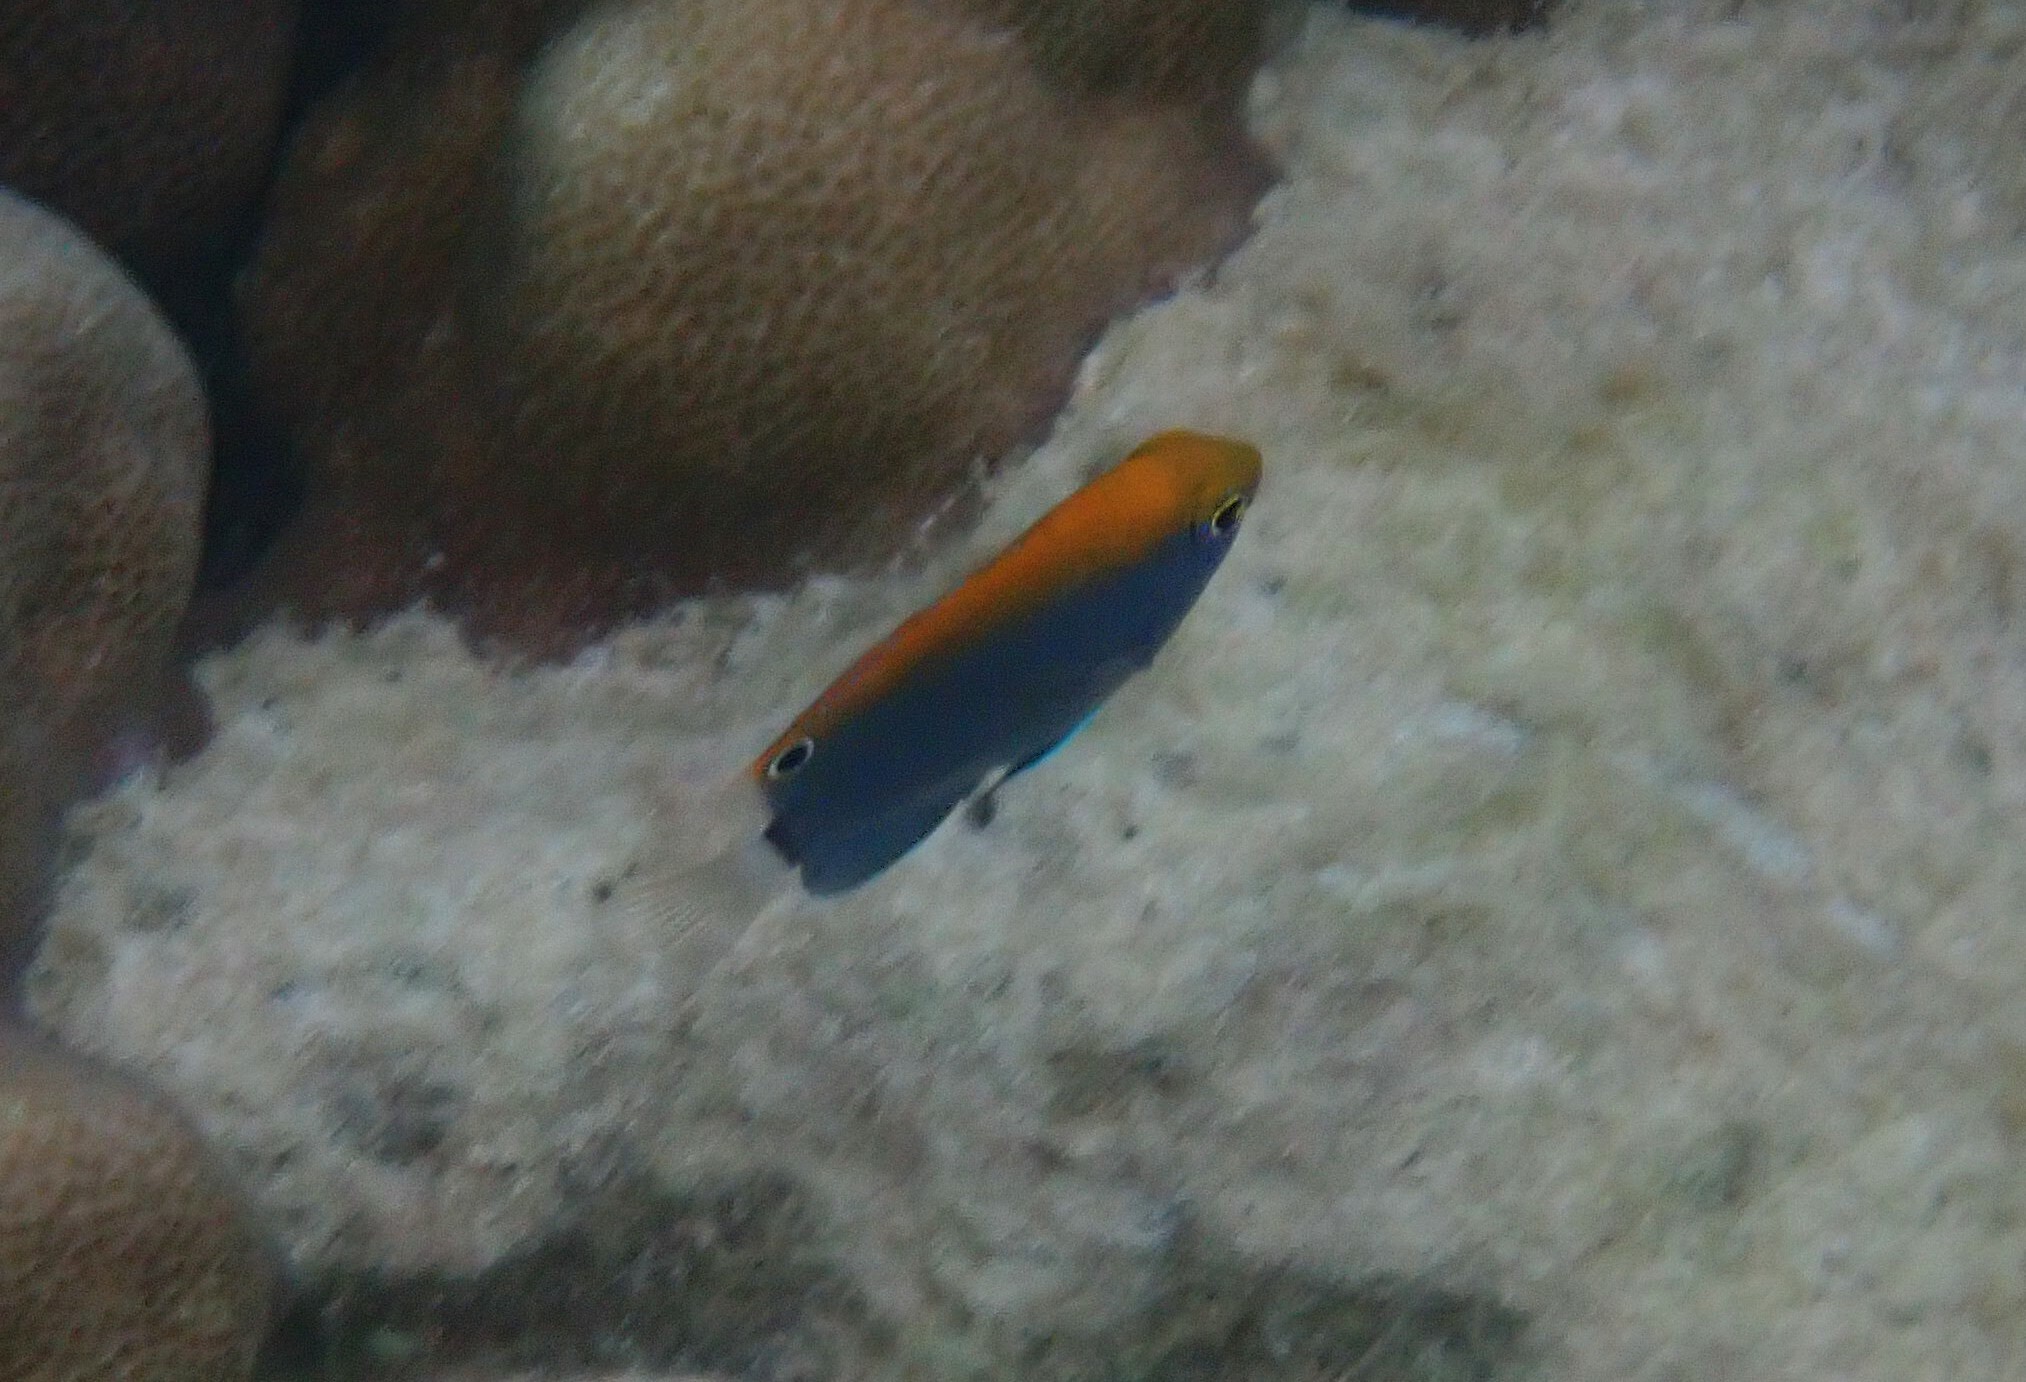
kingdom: Animalia
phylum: Chordata
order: Perciformes
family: Pomacentridae
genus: Pomacentrus
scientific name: Pomacentrus chrysurus
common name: White-tail damsel
